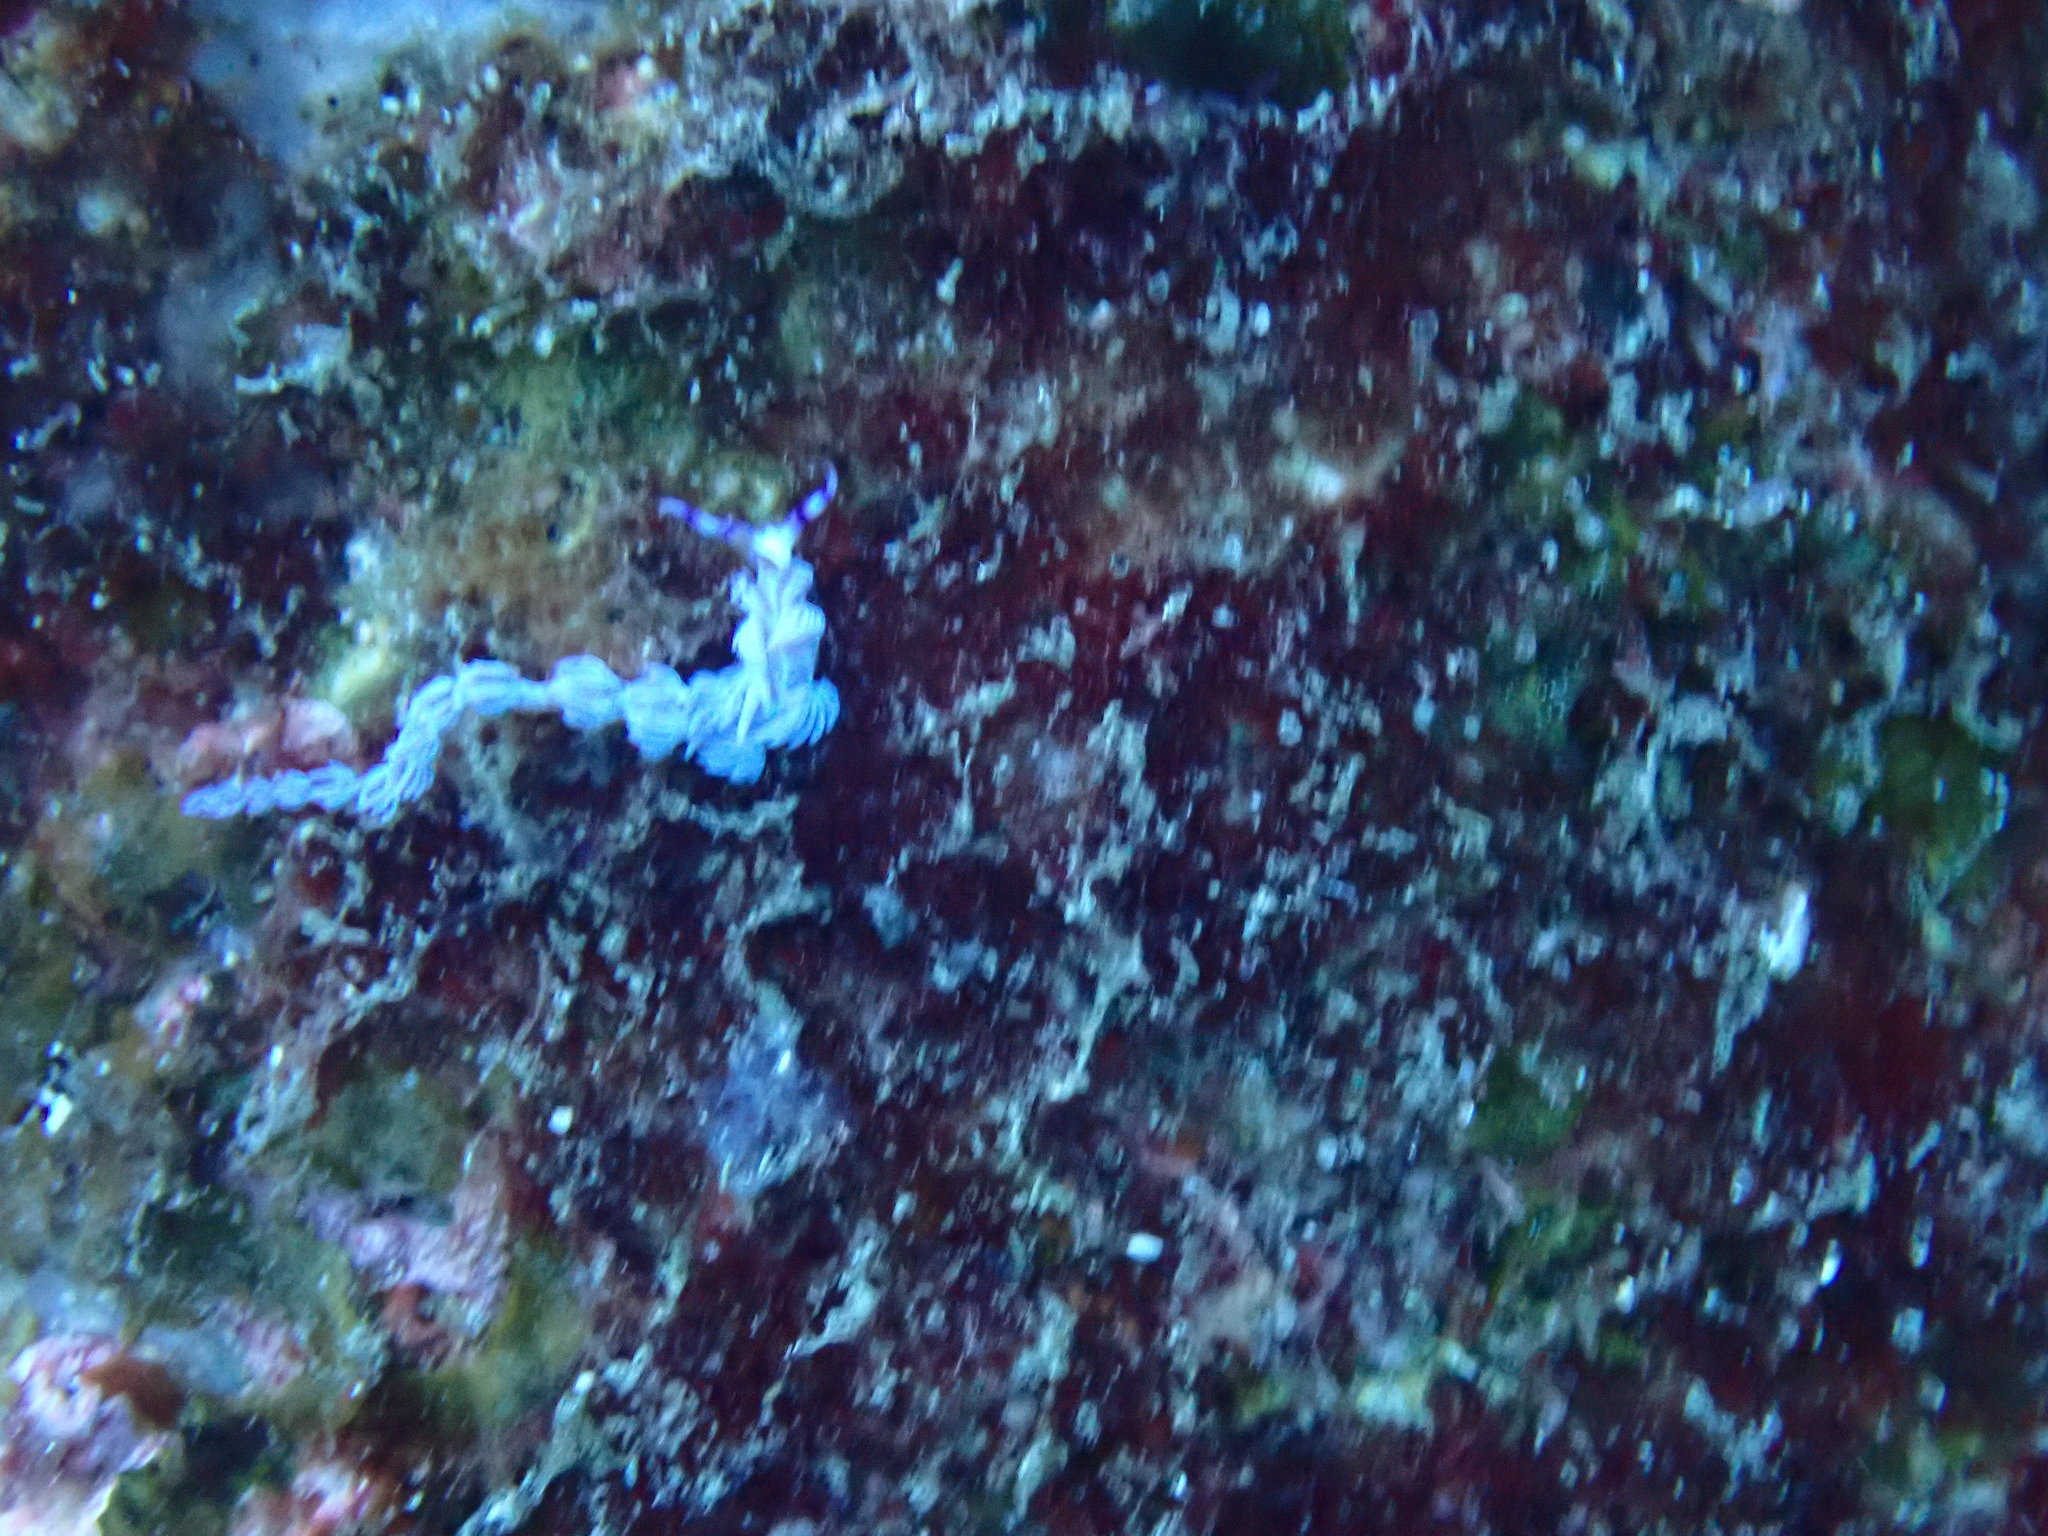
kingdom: Animalia
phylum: Mollusca
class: Gastropoda
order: Nudibranchia
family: Facelinidae
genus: Pteraeolidia
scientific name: Pteraeolidia semperi
